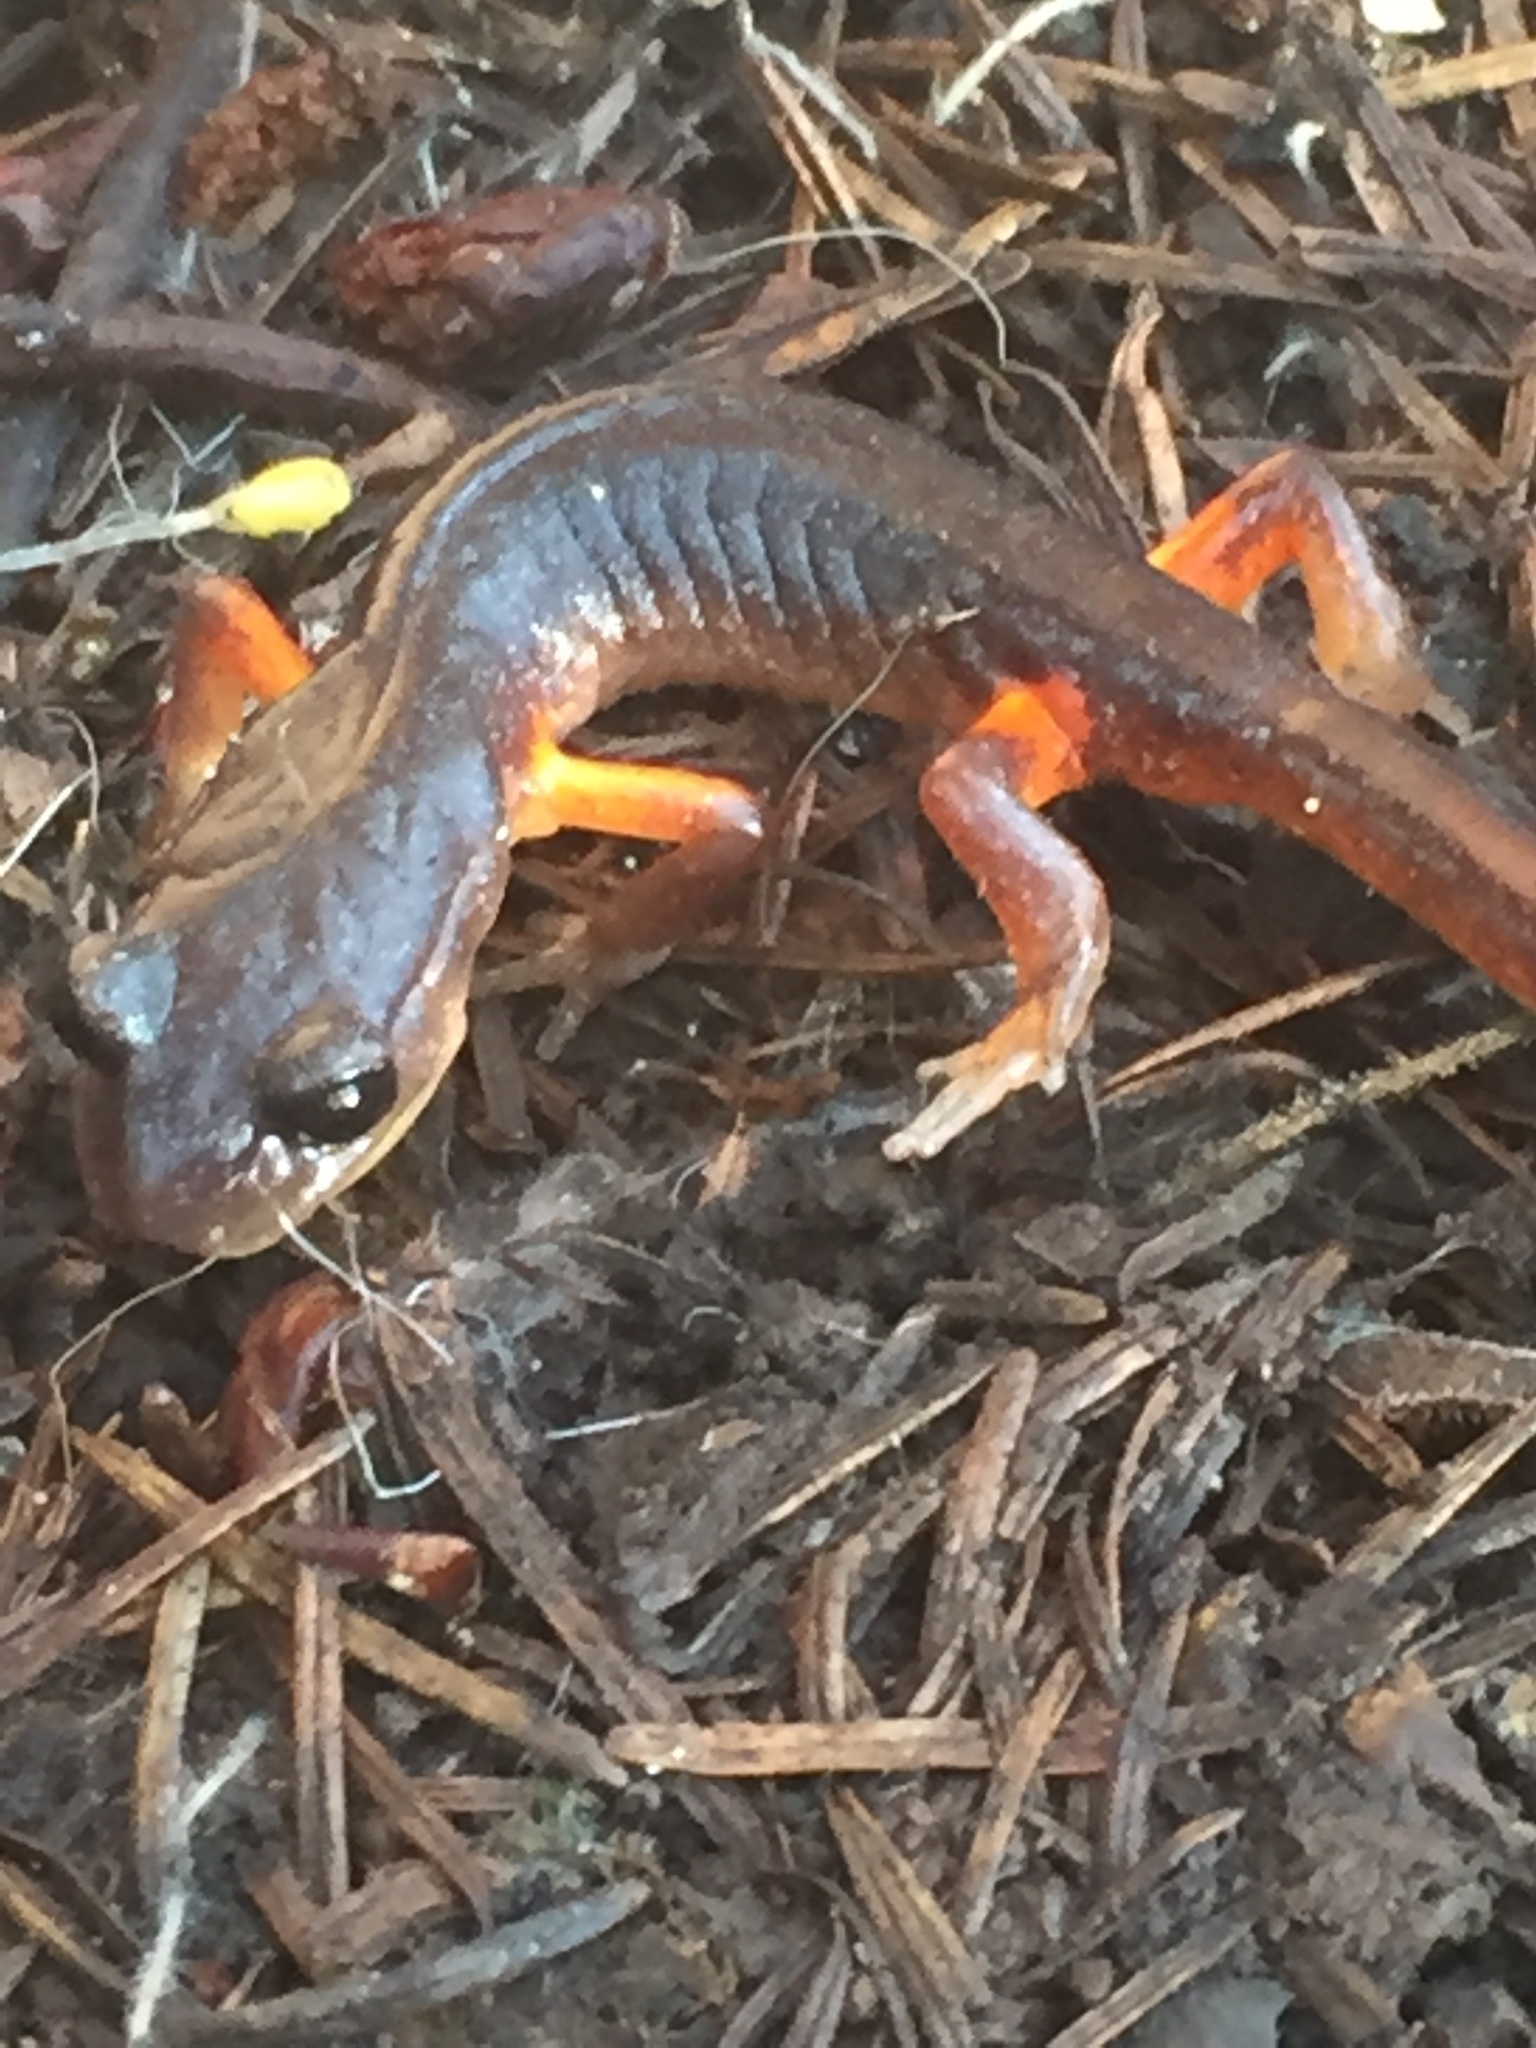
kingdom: Animalia
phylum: Chordata
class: Amphibia
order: Caudata
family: Plethodontidae
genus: Ensatina
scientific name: Ensatina eschscholtzii
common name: Ensatina
